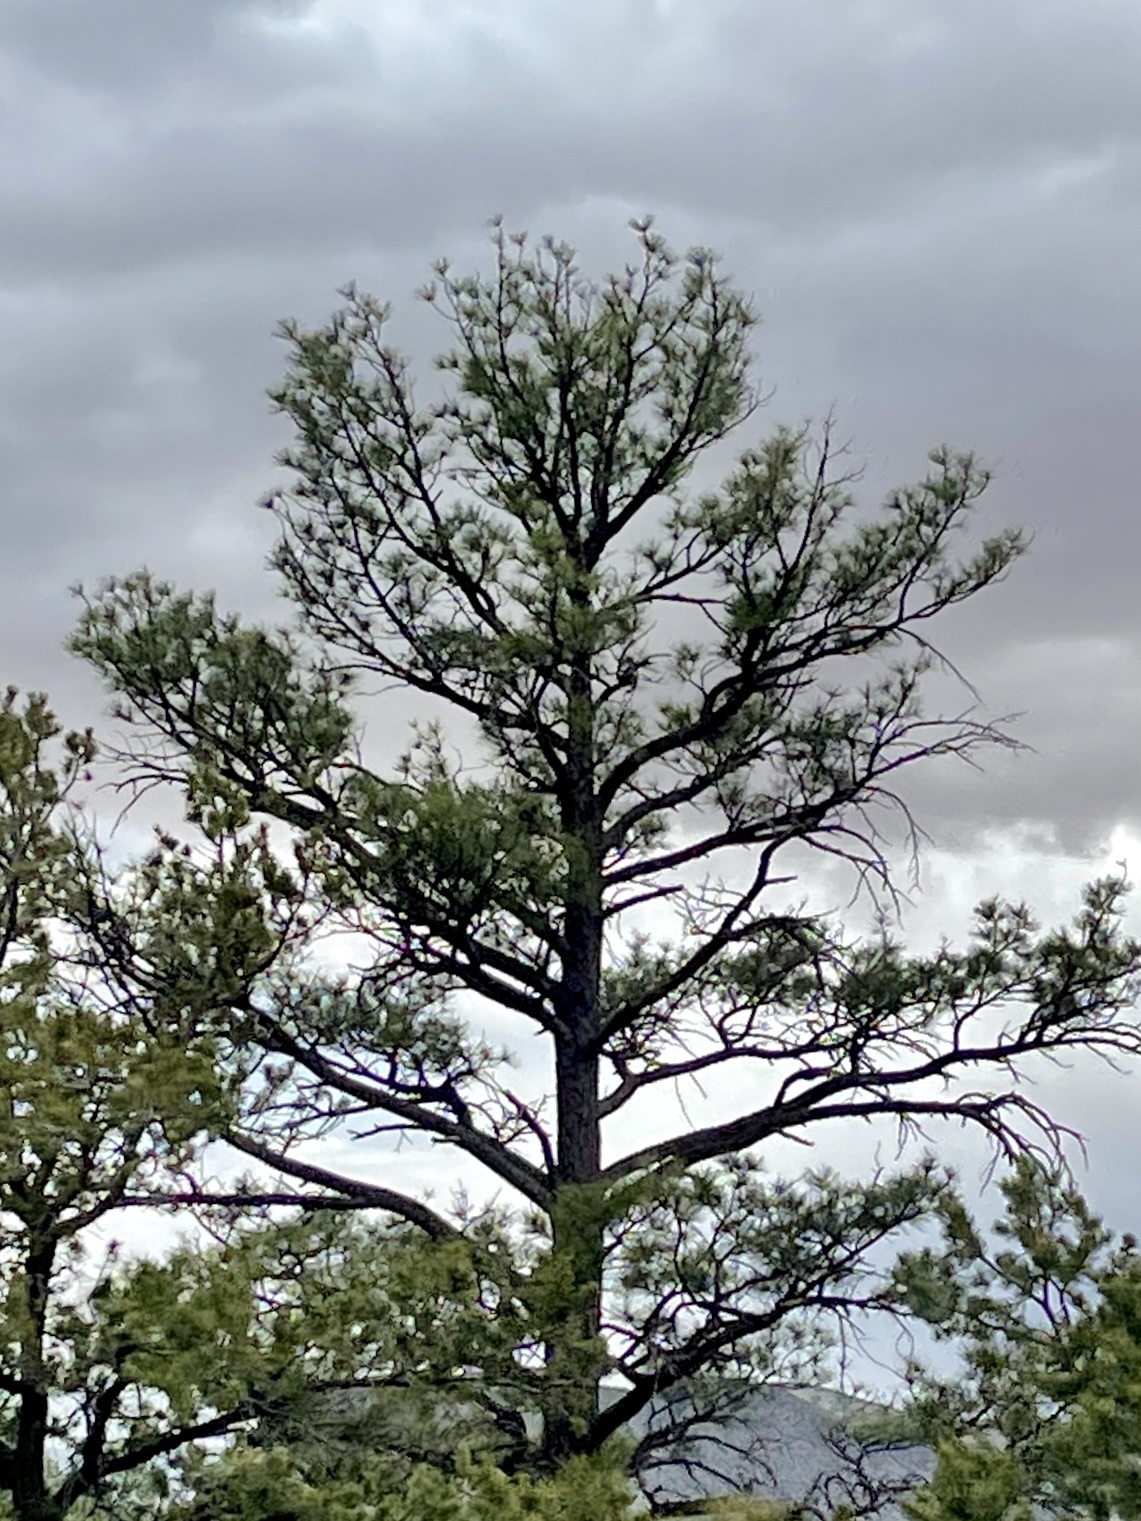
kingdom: Plantae
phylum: Tracheophyta
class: Pinopsida
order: Pinales
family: Pinaceae
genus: Pinus
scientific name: Pinus ponderosa
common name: Western yellow-pine
